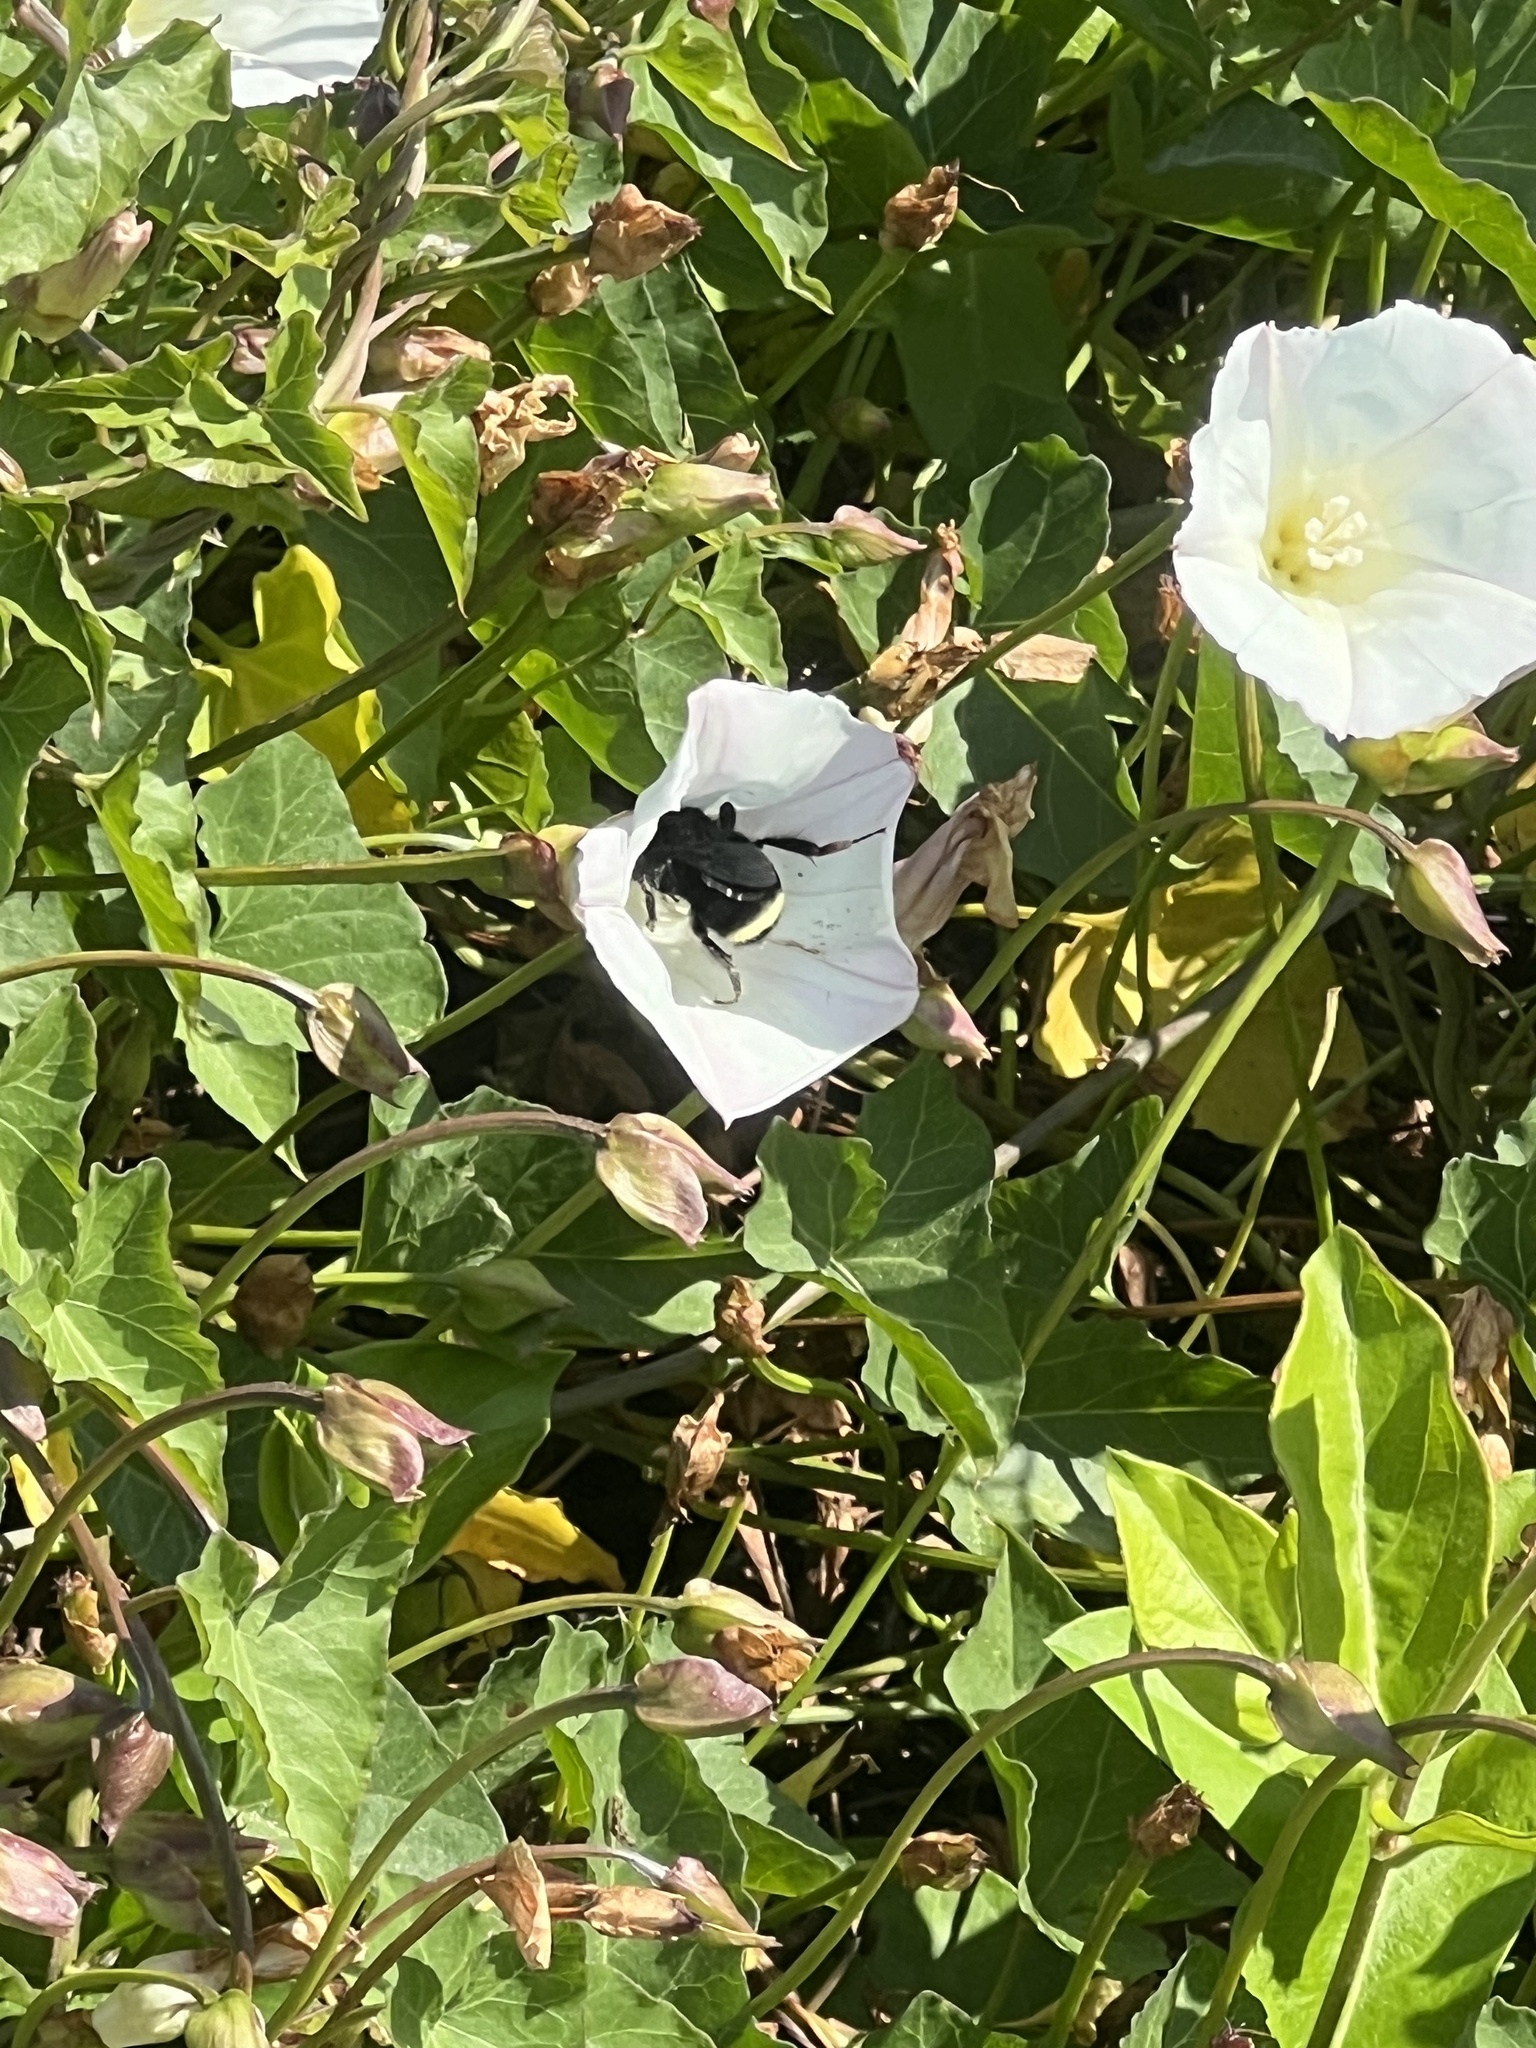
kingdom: Animalia
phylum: Arthropoda
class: Insecta
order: Hymenoptera
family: Apidae
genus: Bombus
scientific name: Bombus vosnesenskii
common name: Vosnesensky bumble bee
